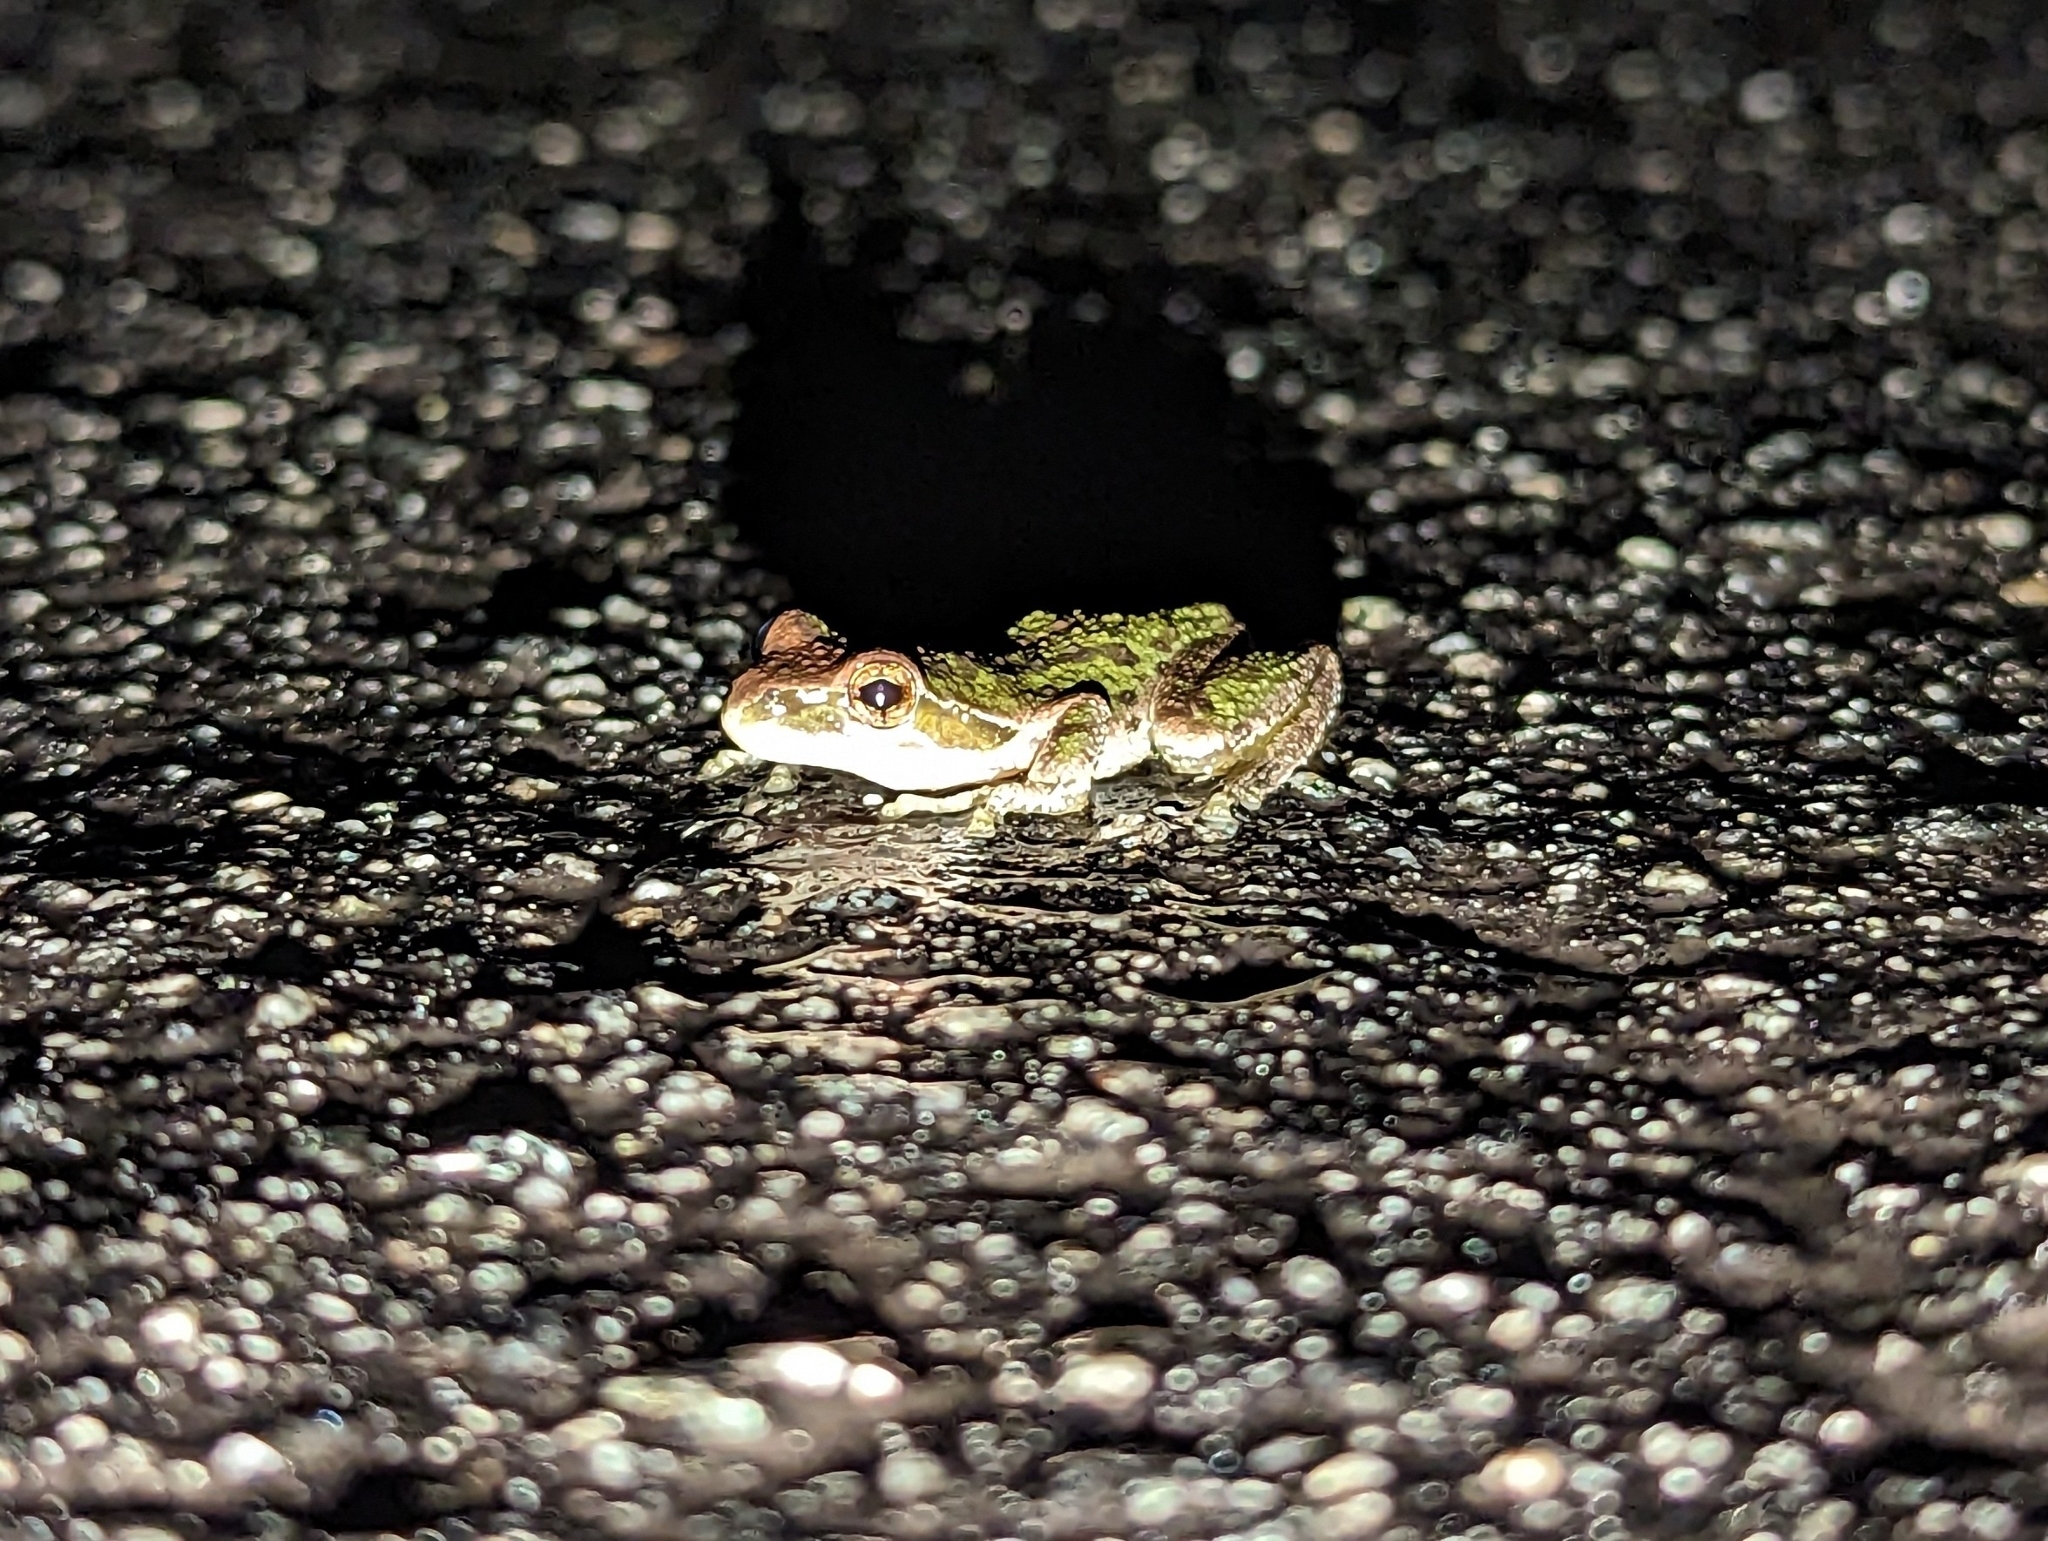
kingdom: Animalia
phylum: Chordata
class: Amphibia
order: Anura
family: Hylidae
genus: Pseudacris
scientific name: Pseudacris regilla
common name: Pacific chorus frog
